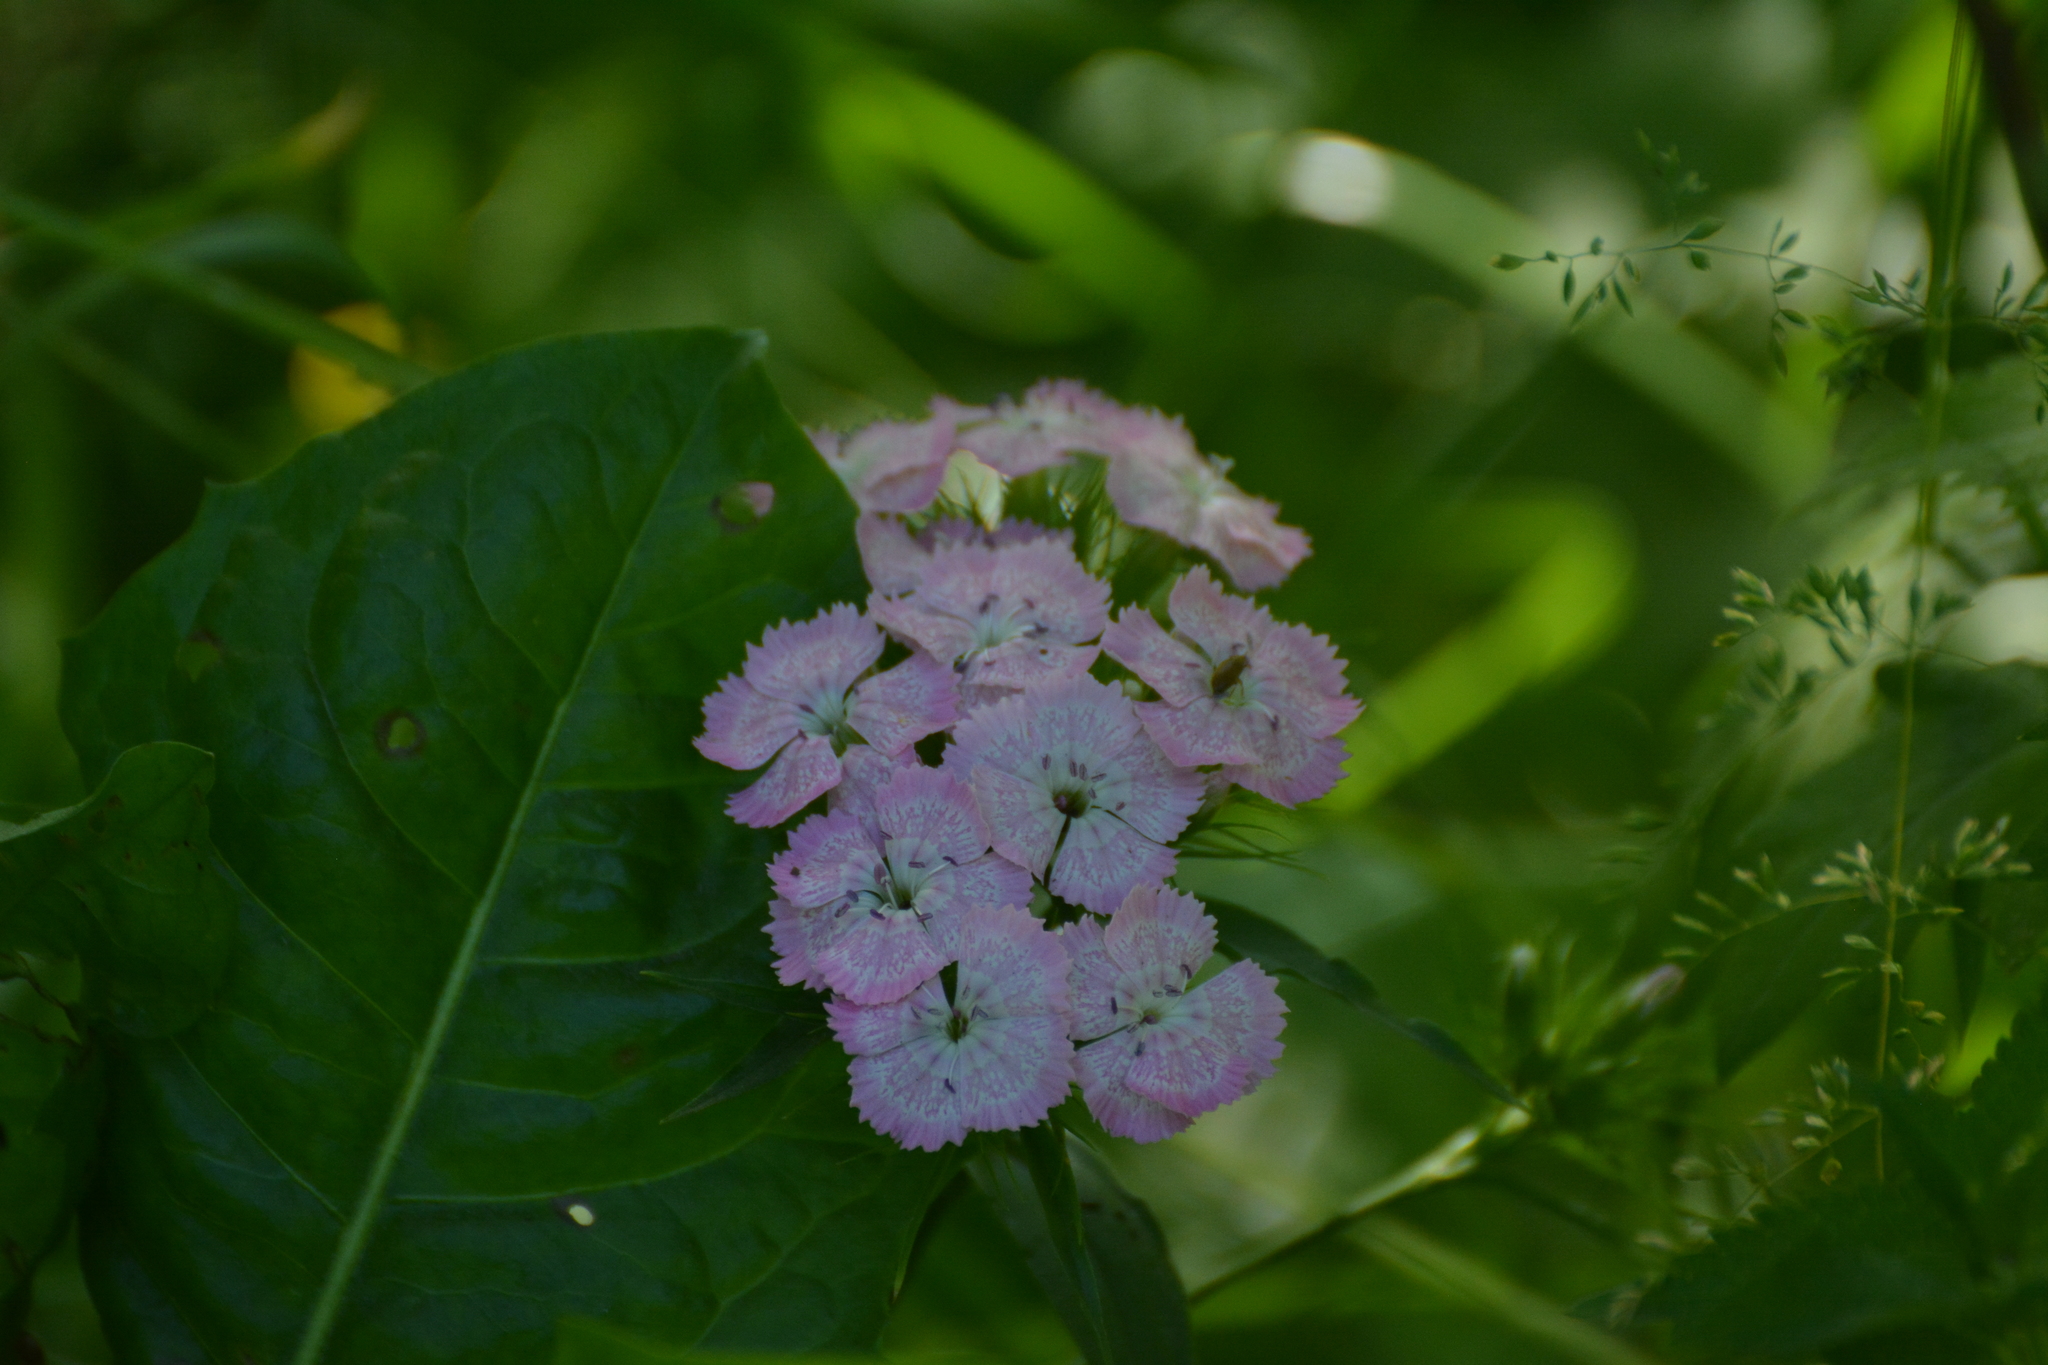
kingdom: Plantae
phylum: Tracheophyta
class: Magnoliopsida
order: Caryophyllales
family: Caryophyllaceae
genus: Dianthus
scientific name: Dianthus barbatus
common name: Sweet-william
